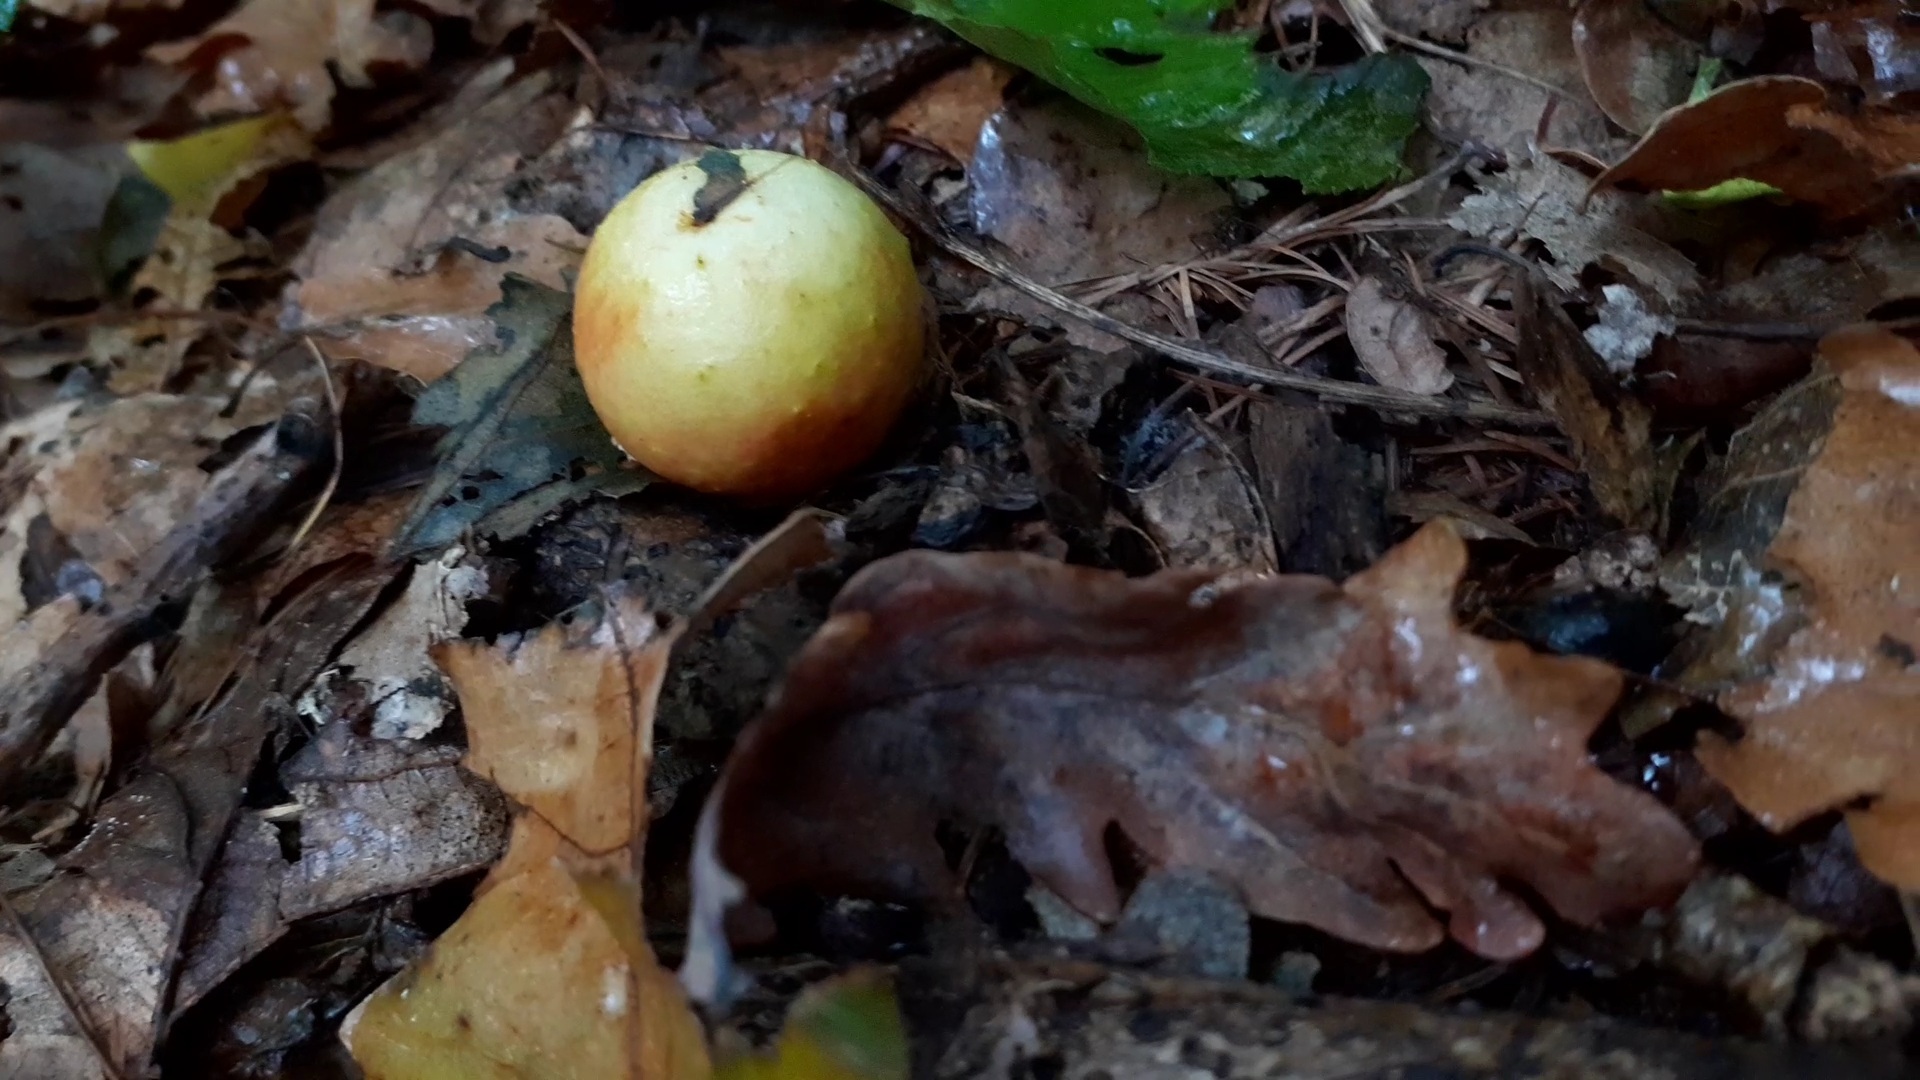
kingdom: Animalia
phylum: Arthropoda
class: Insecta
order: Hymenoptera
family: Cynipidae
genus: Cynips
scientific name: Cynips quercusfolii
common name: Cherry gall
